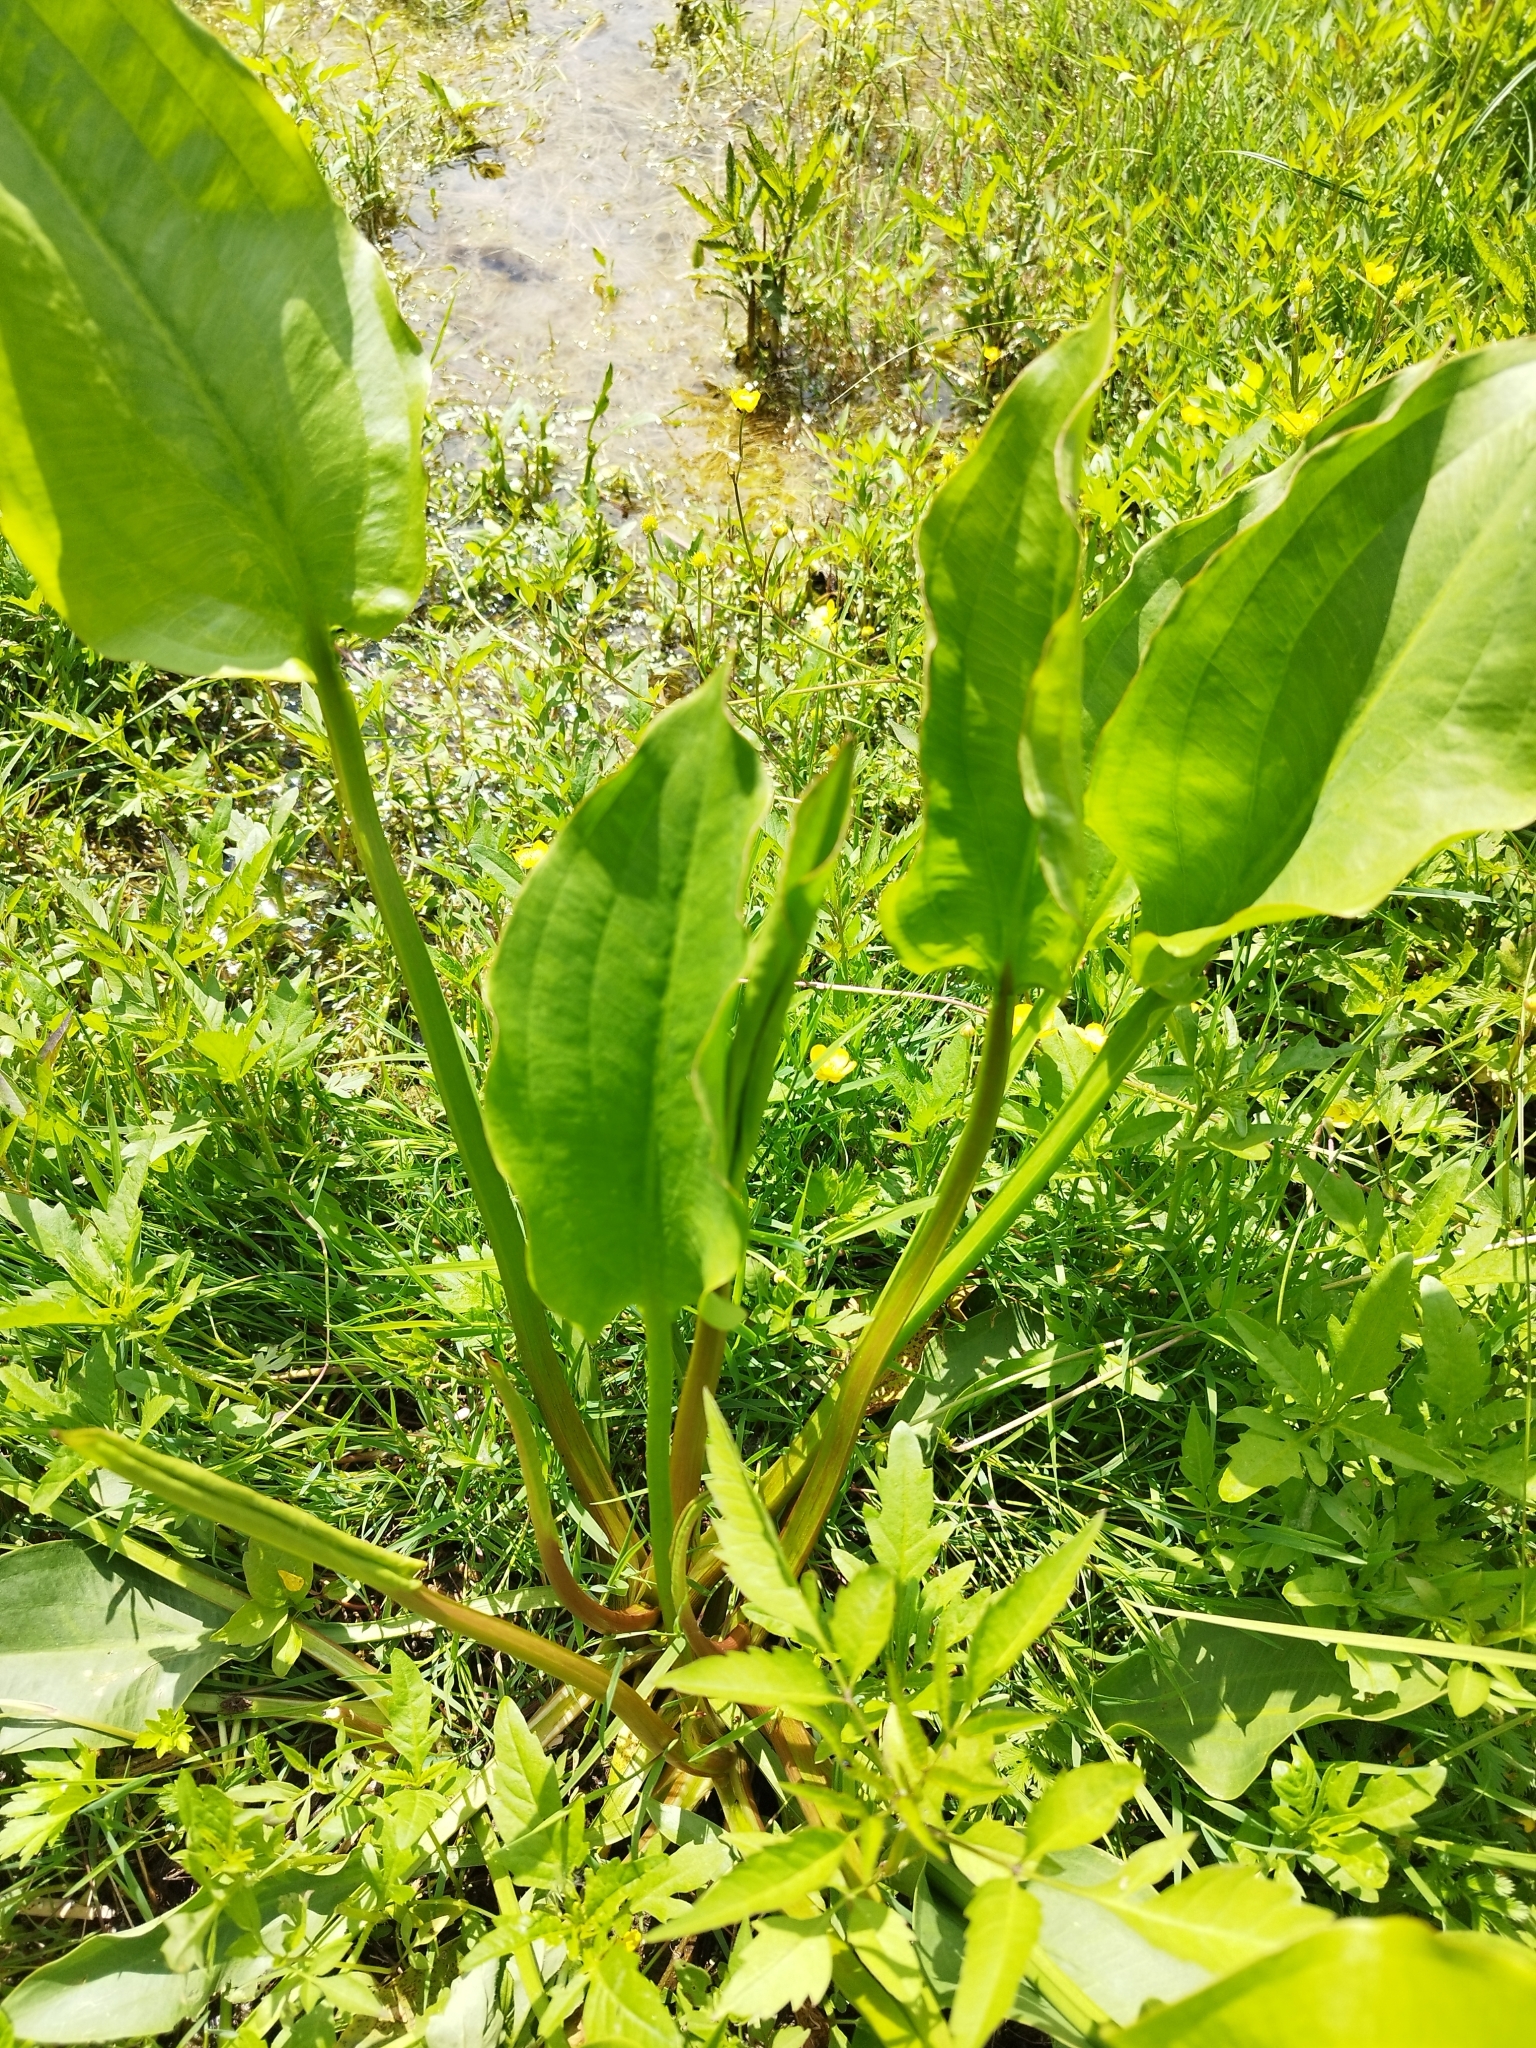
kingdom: Plantae
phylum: Tracheophyta
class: Liliopsida
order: Alismatales
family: Alismataceae
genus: Alisma
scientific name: Alisma plantago-aquatica
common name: Water-plantain
